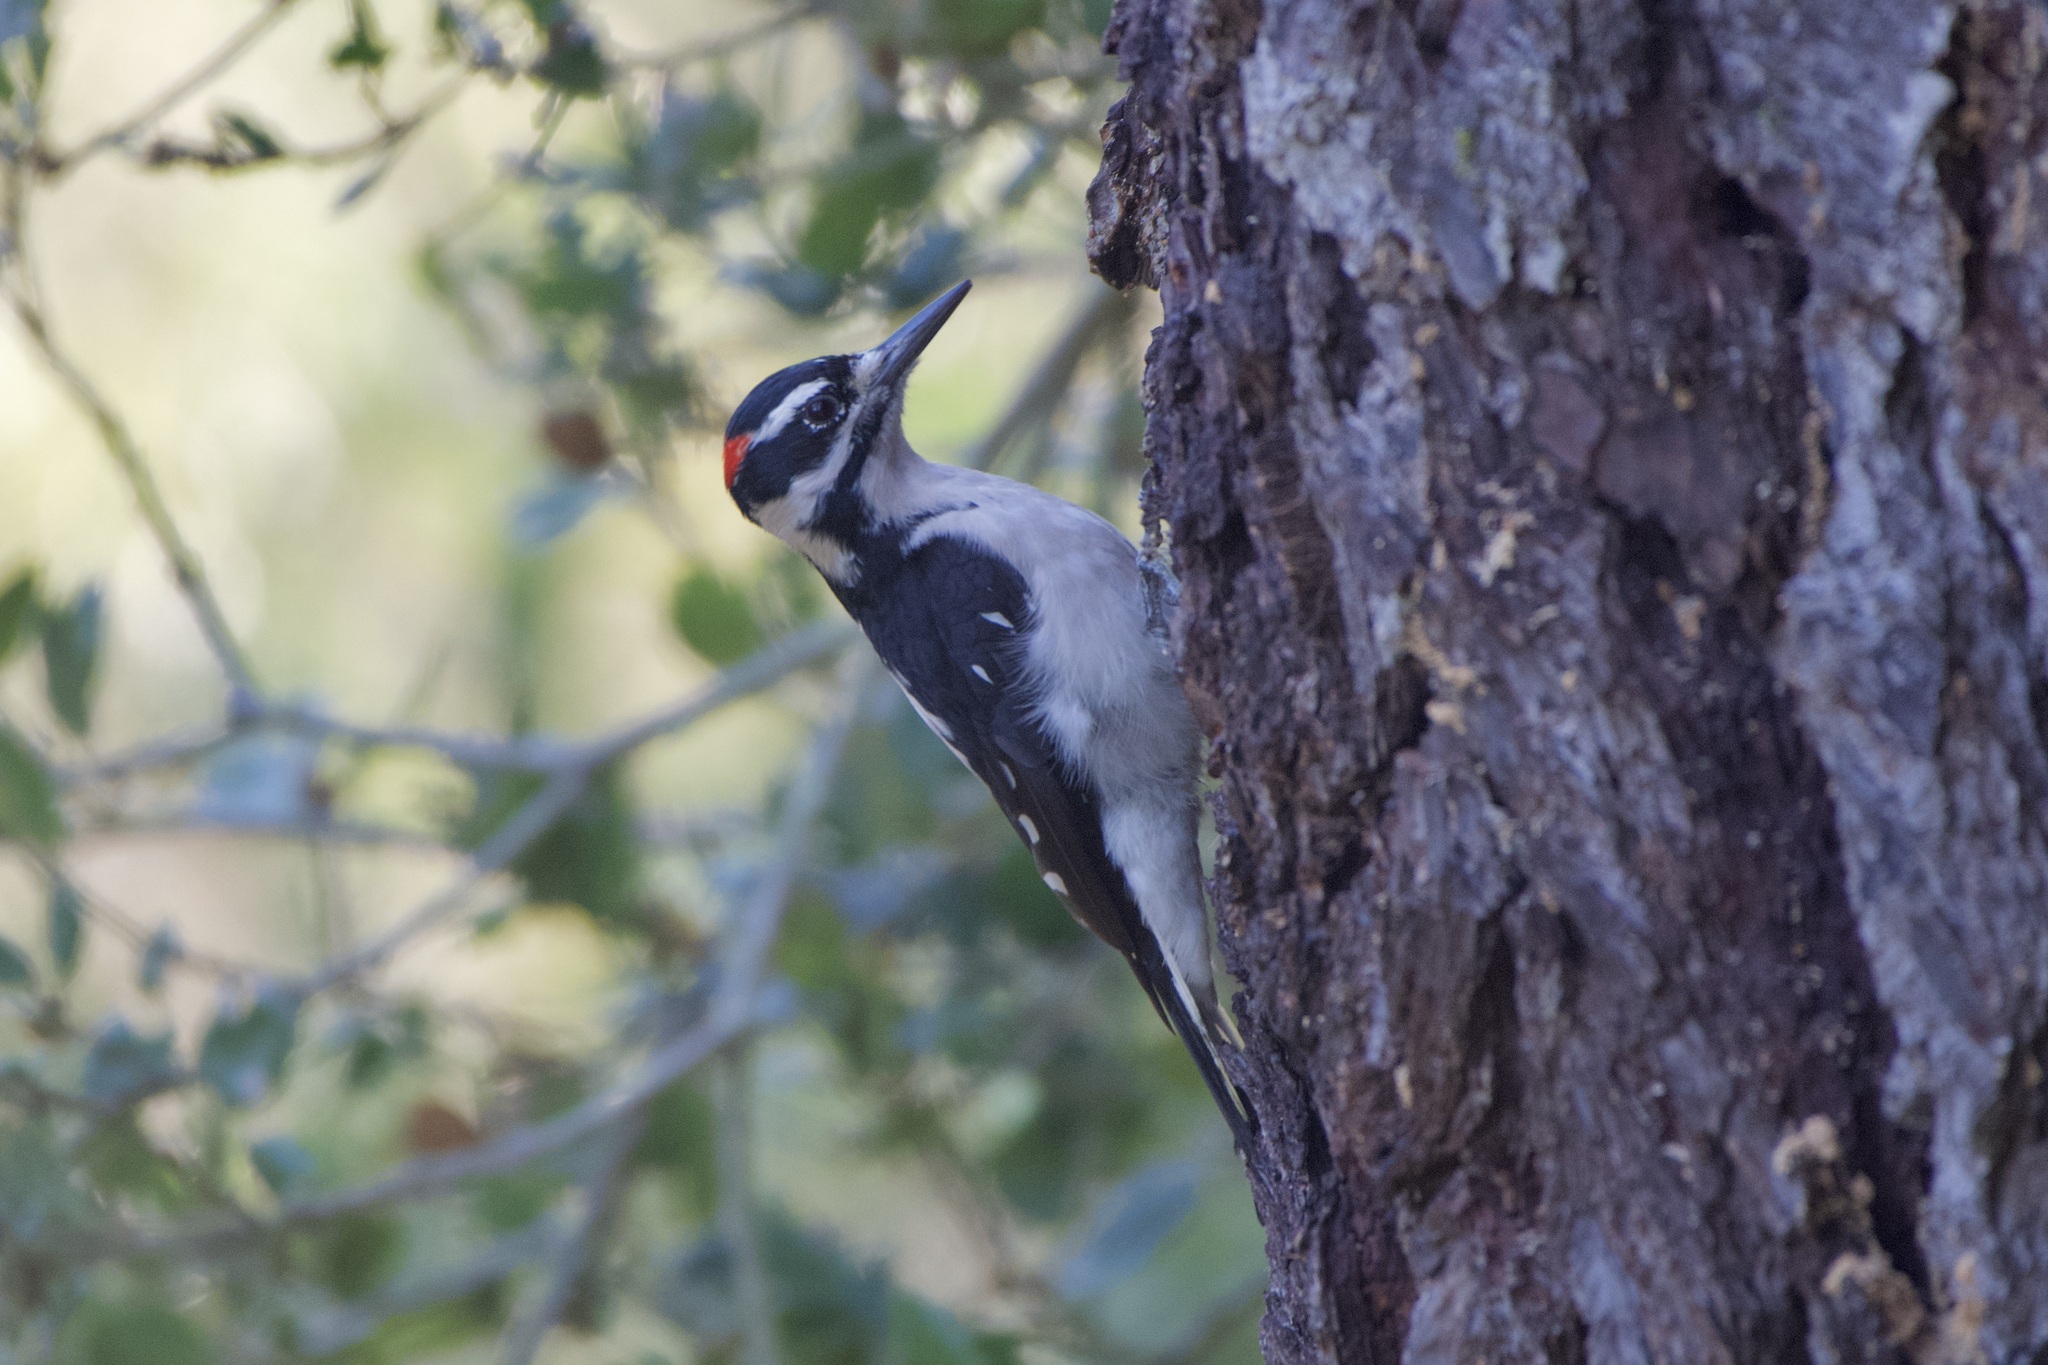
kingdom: Animalia
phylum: Chordata
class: Aves
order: Piciformes
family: Picidae
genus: Leuconotopicus
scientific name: Leuconotopicus villosus
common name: Hairy woodpecker
